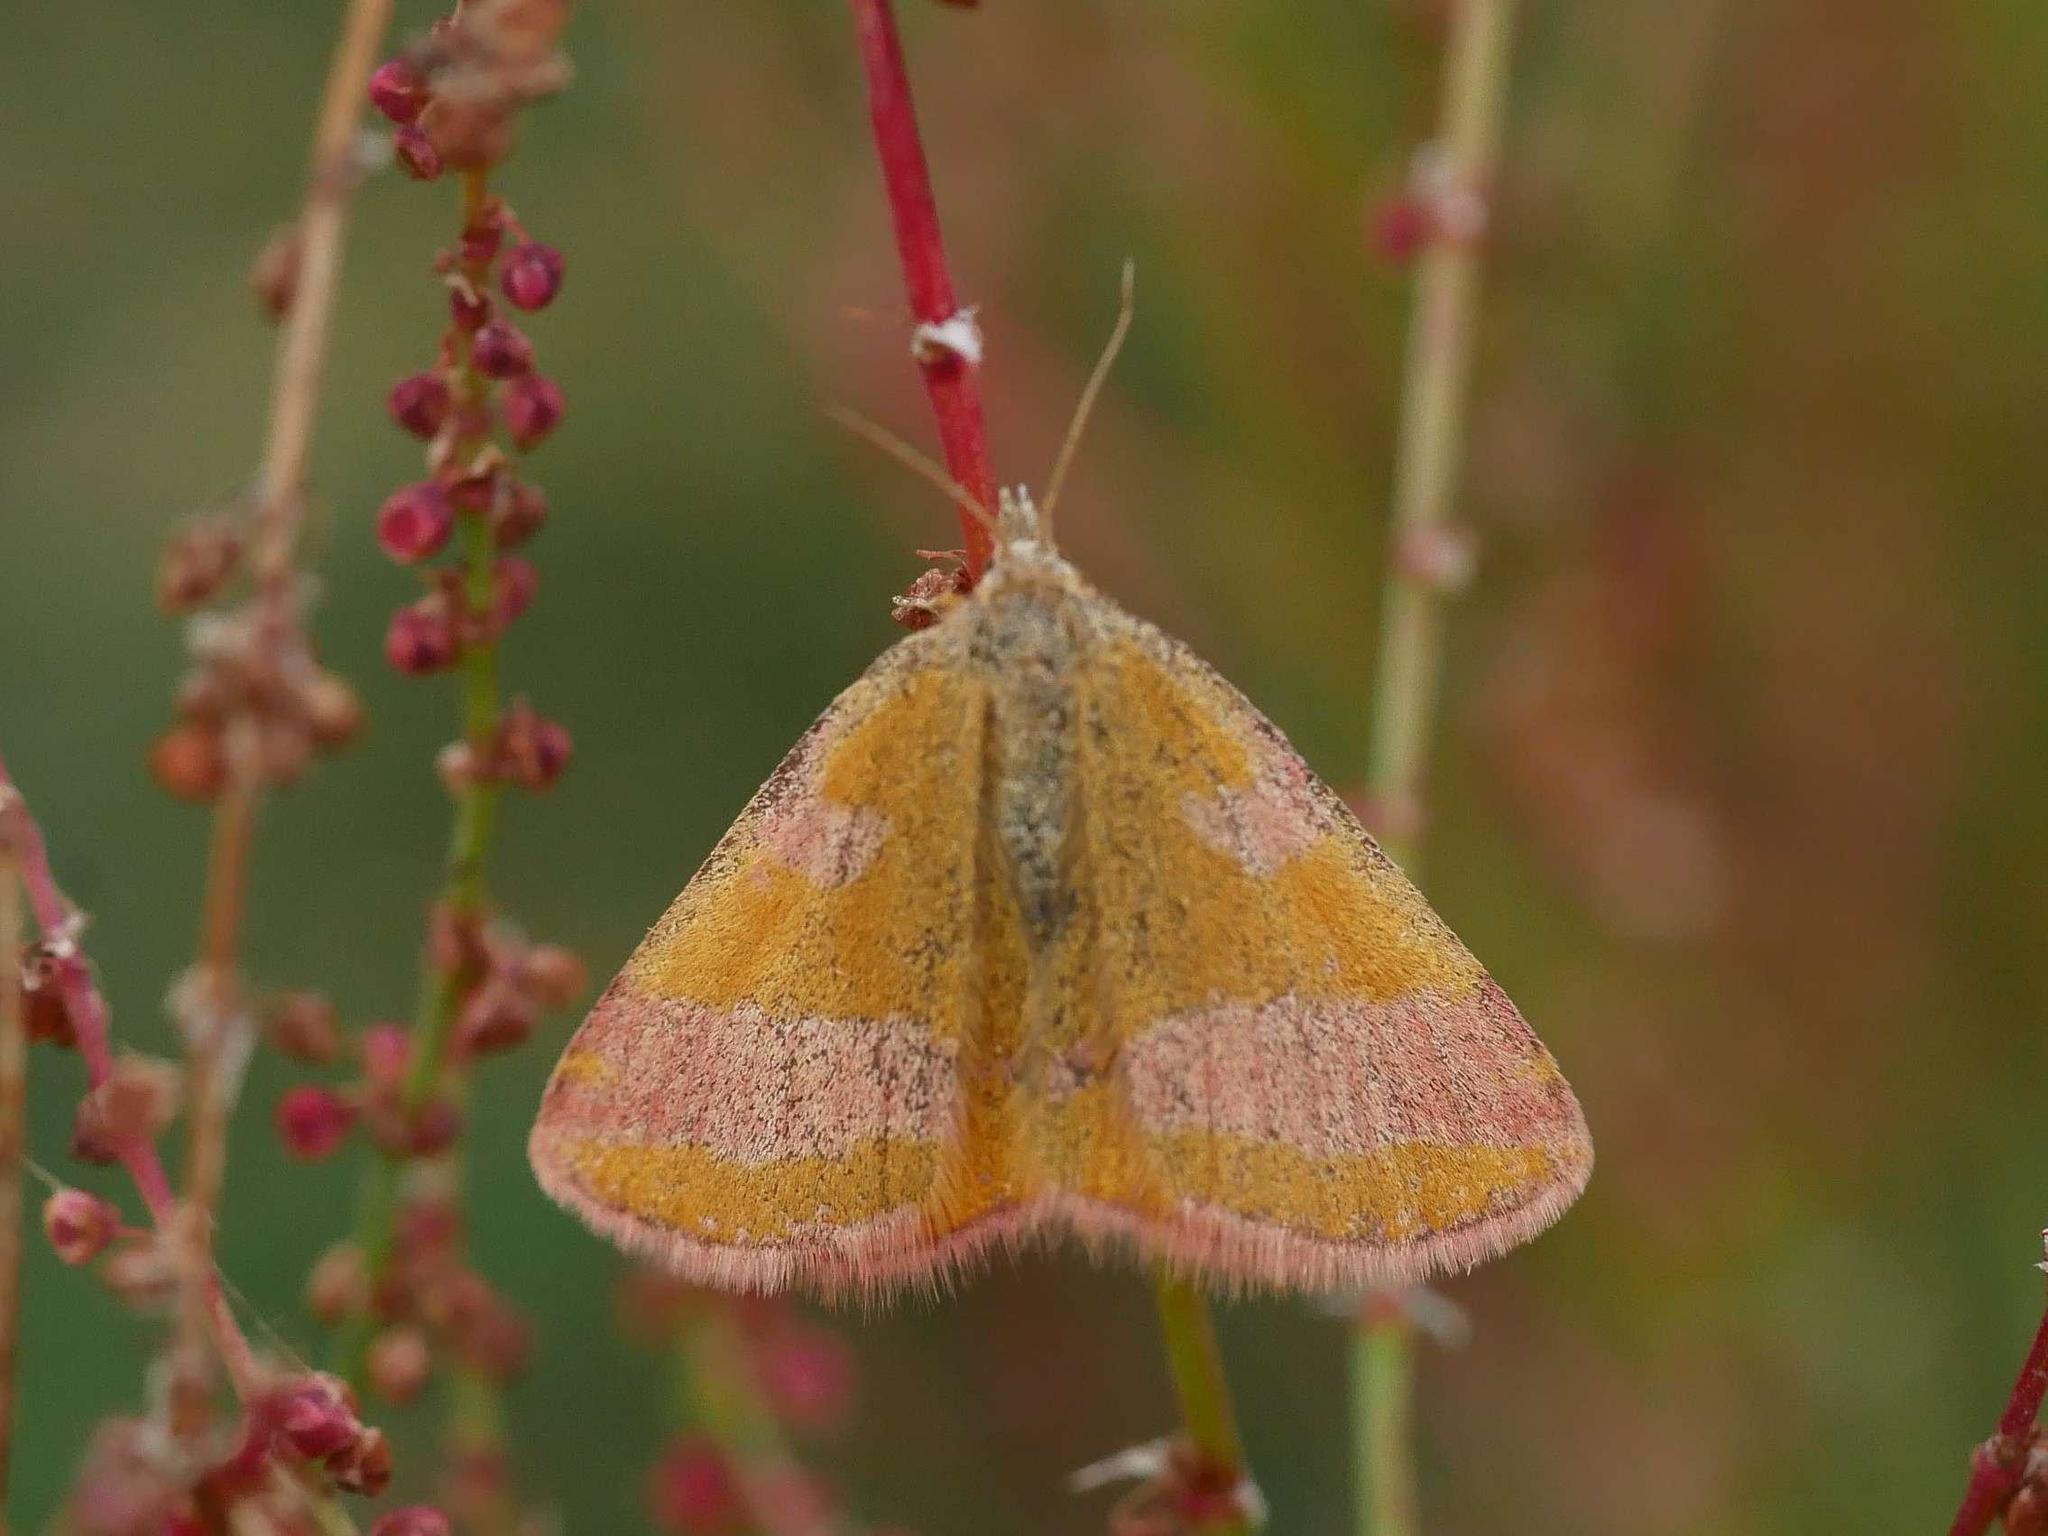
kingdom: Animalia
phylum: Arthropoda
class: Insecta
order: Lepidoptera
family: Geometridae
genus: Lythria
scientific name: Lythria cruentaria
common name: Purple-barred yellow
